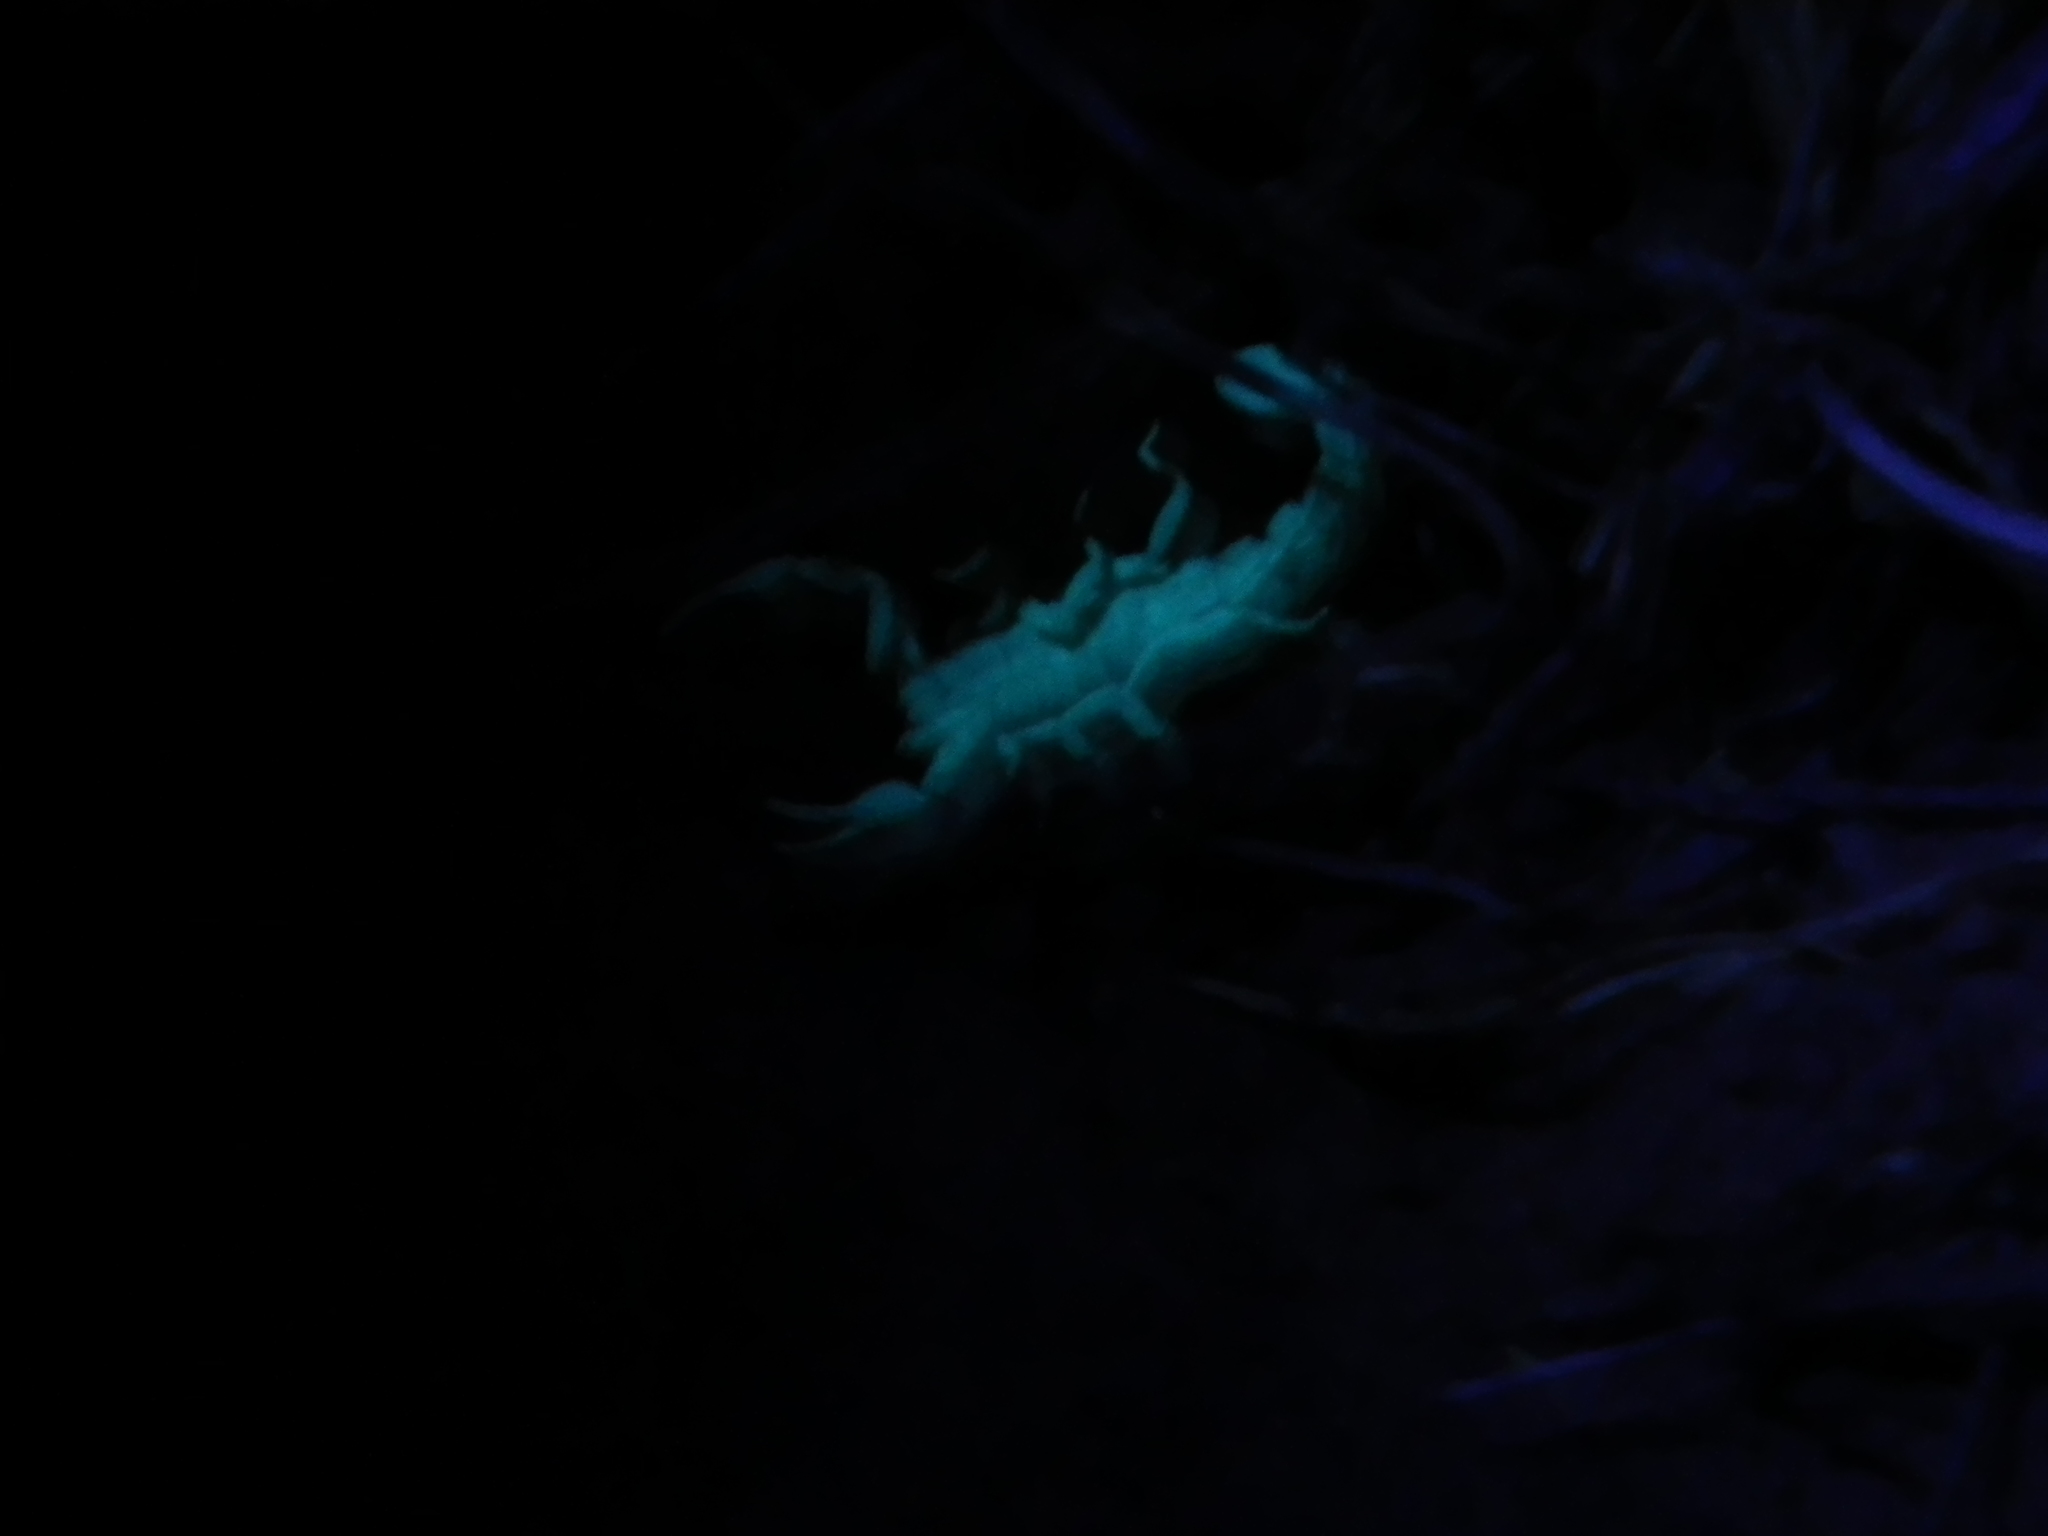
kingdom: Animalia
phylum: Arthropoda
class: Arachnida
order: Scorpiones
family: Vaejovidae
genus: Serradigitus
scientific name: Serradigitus gertschi
